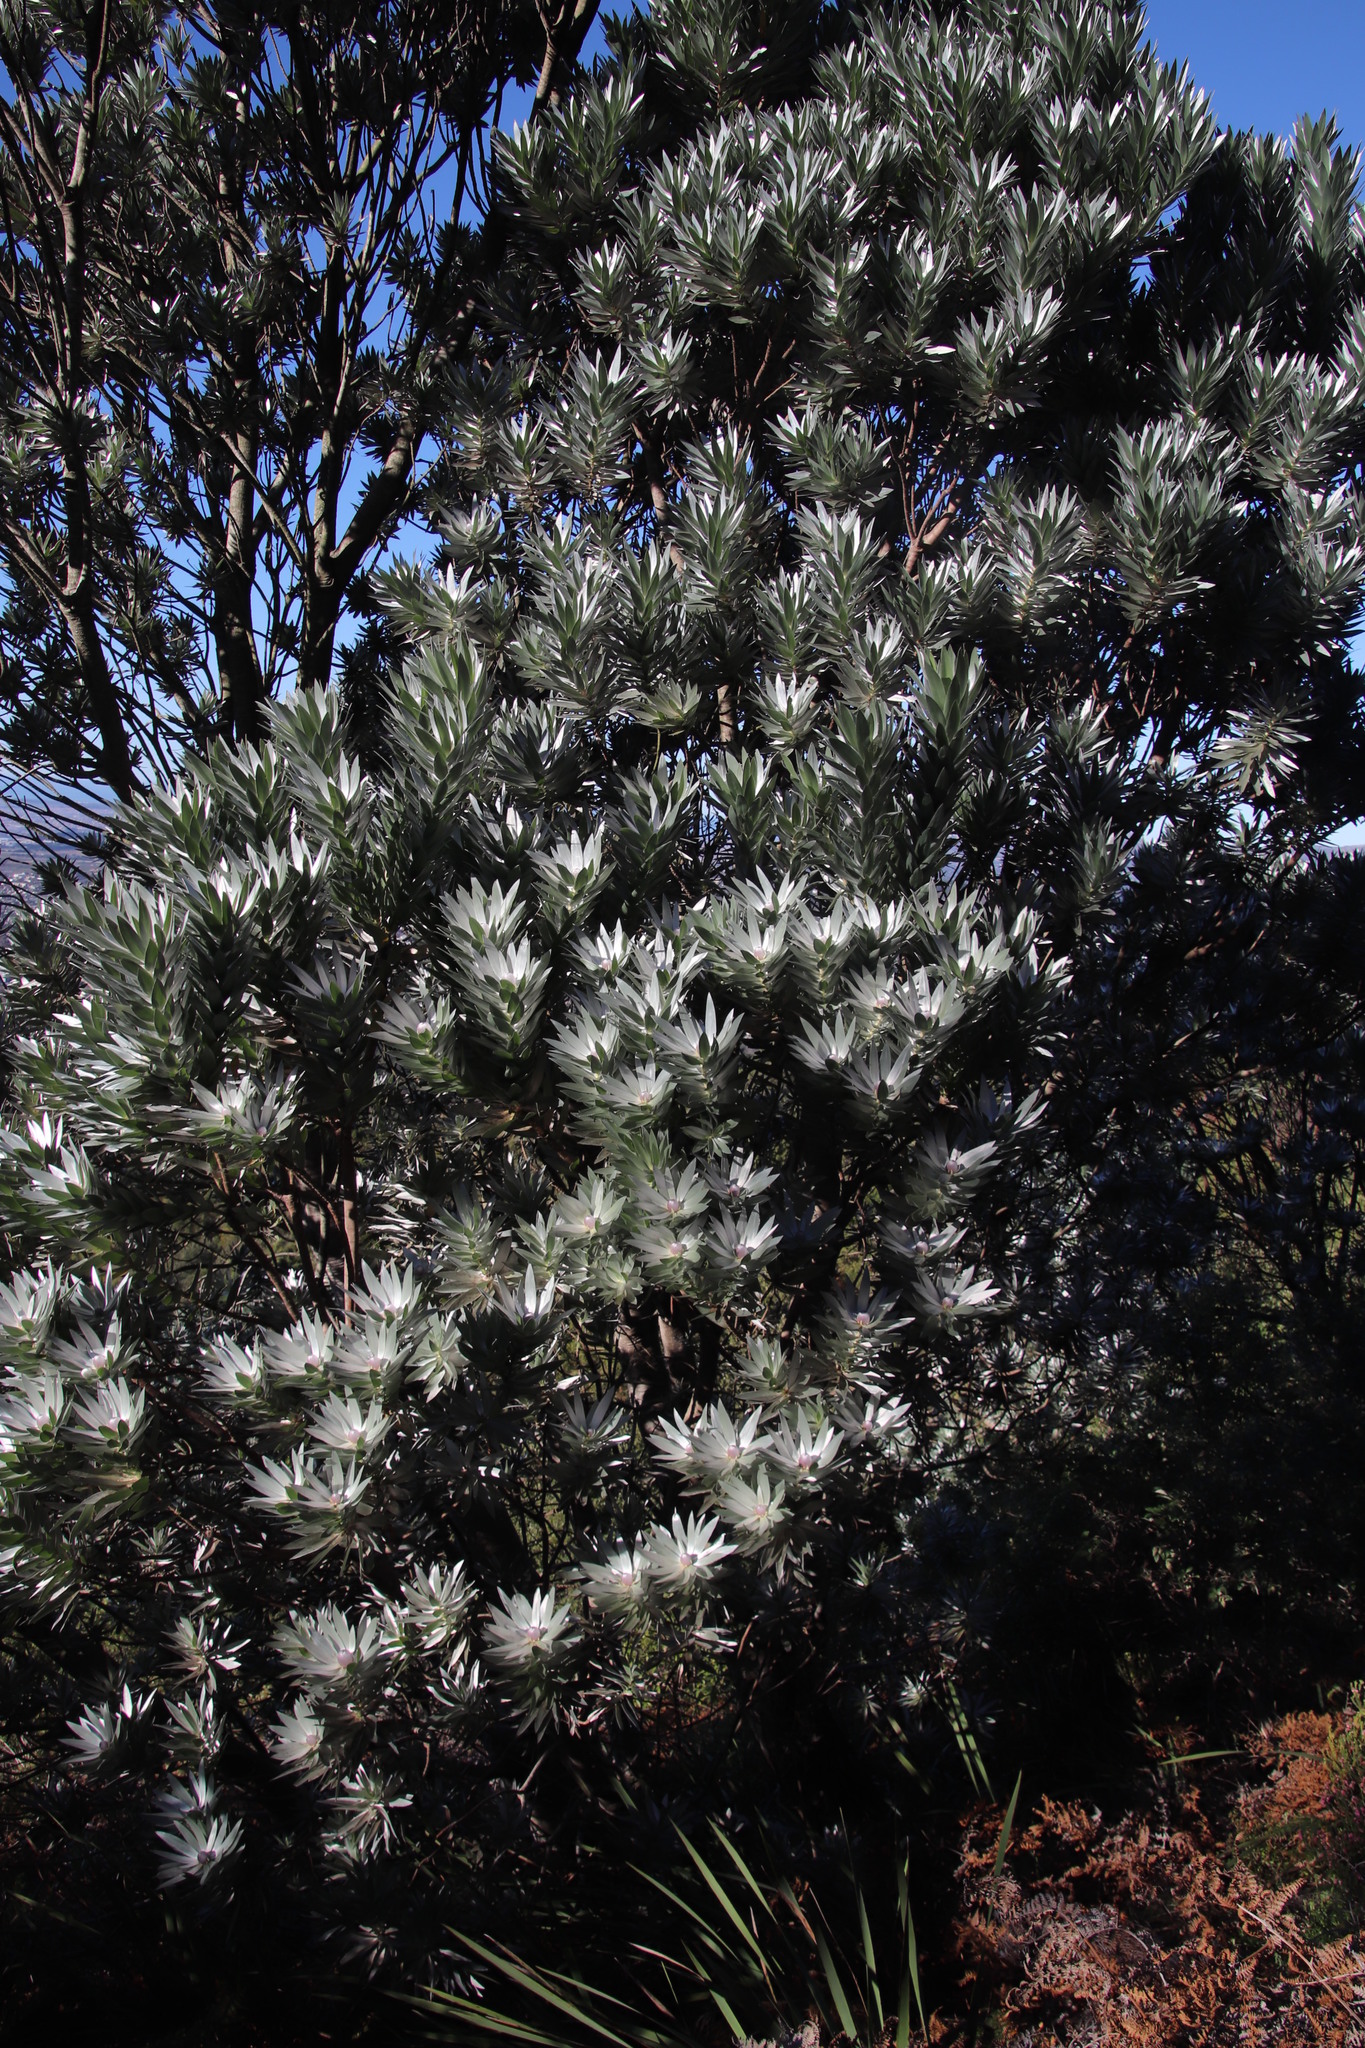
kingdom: Plantae
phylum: Tracheophyta
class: Magnoliopsida
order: Proteales
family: Proteaceae
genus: Leucadendron
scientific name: Leucadendron argenteum
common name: Cape silver tree
